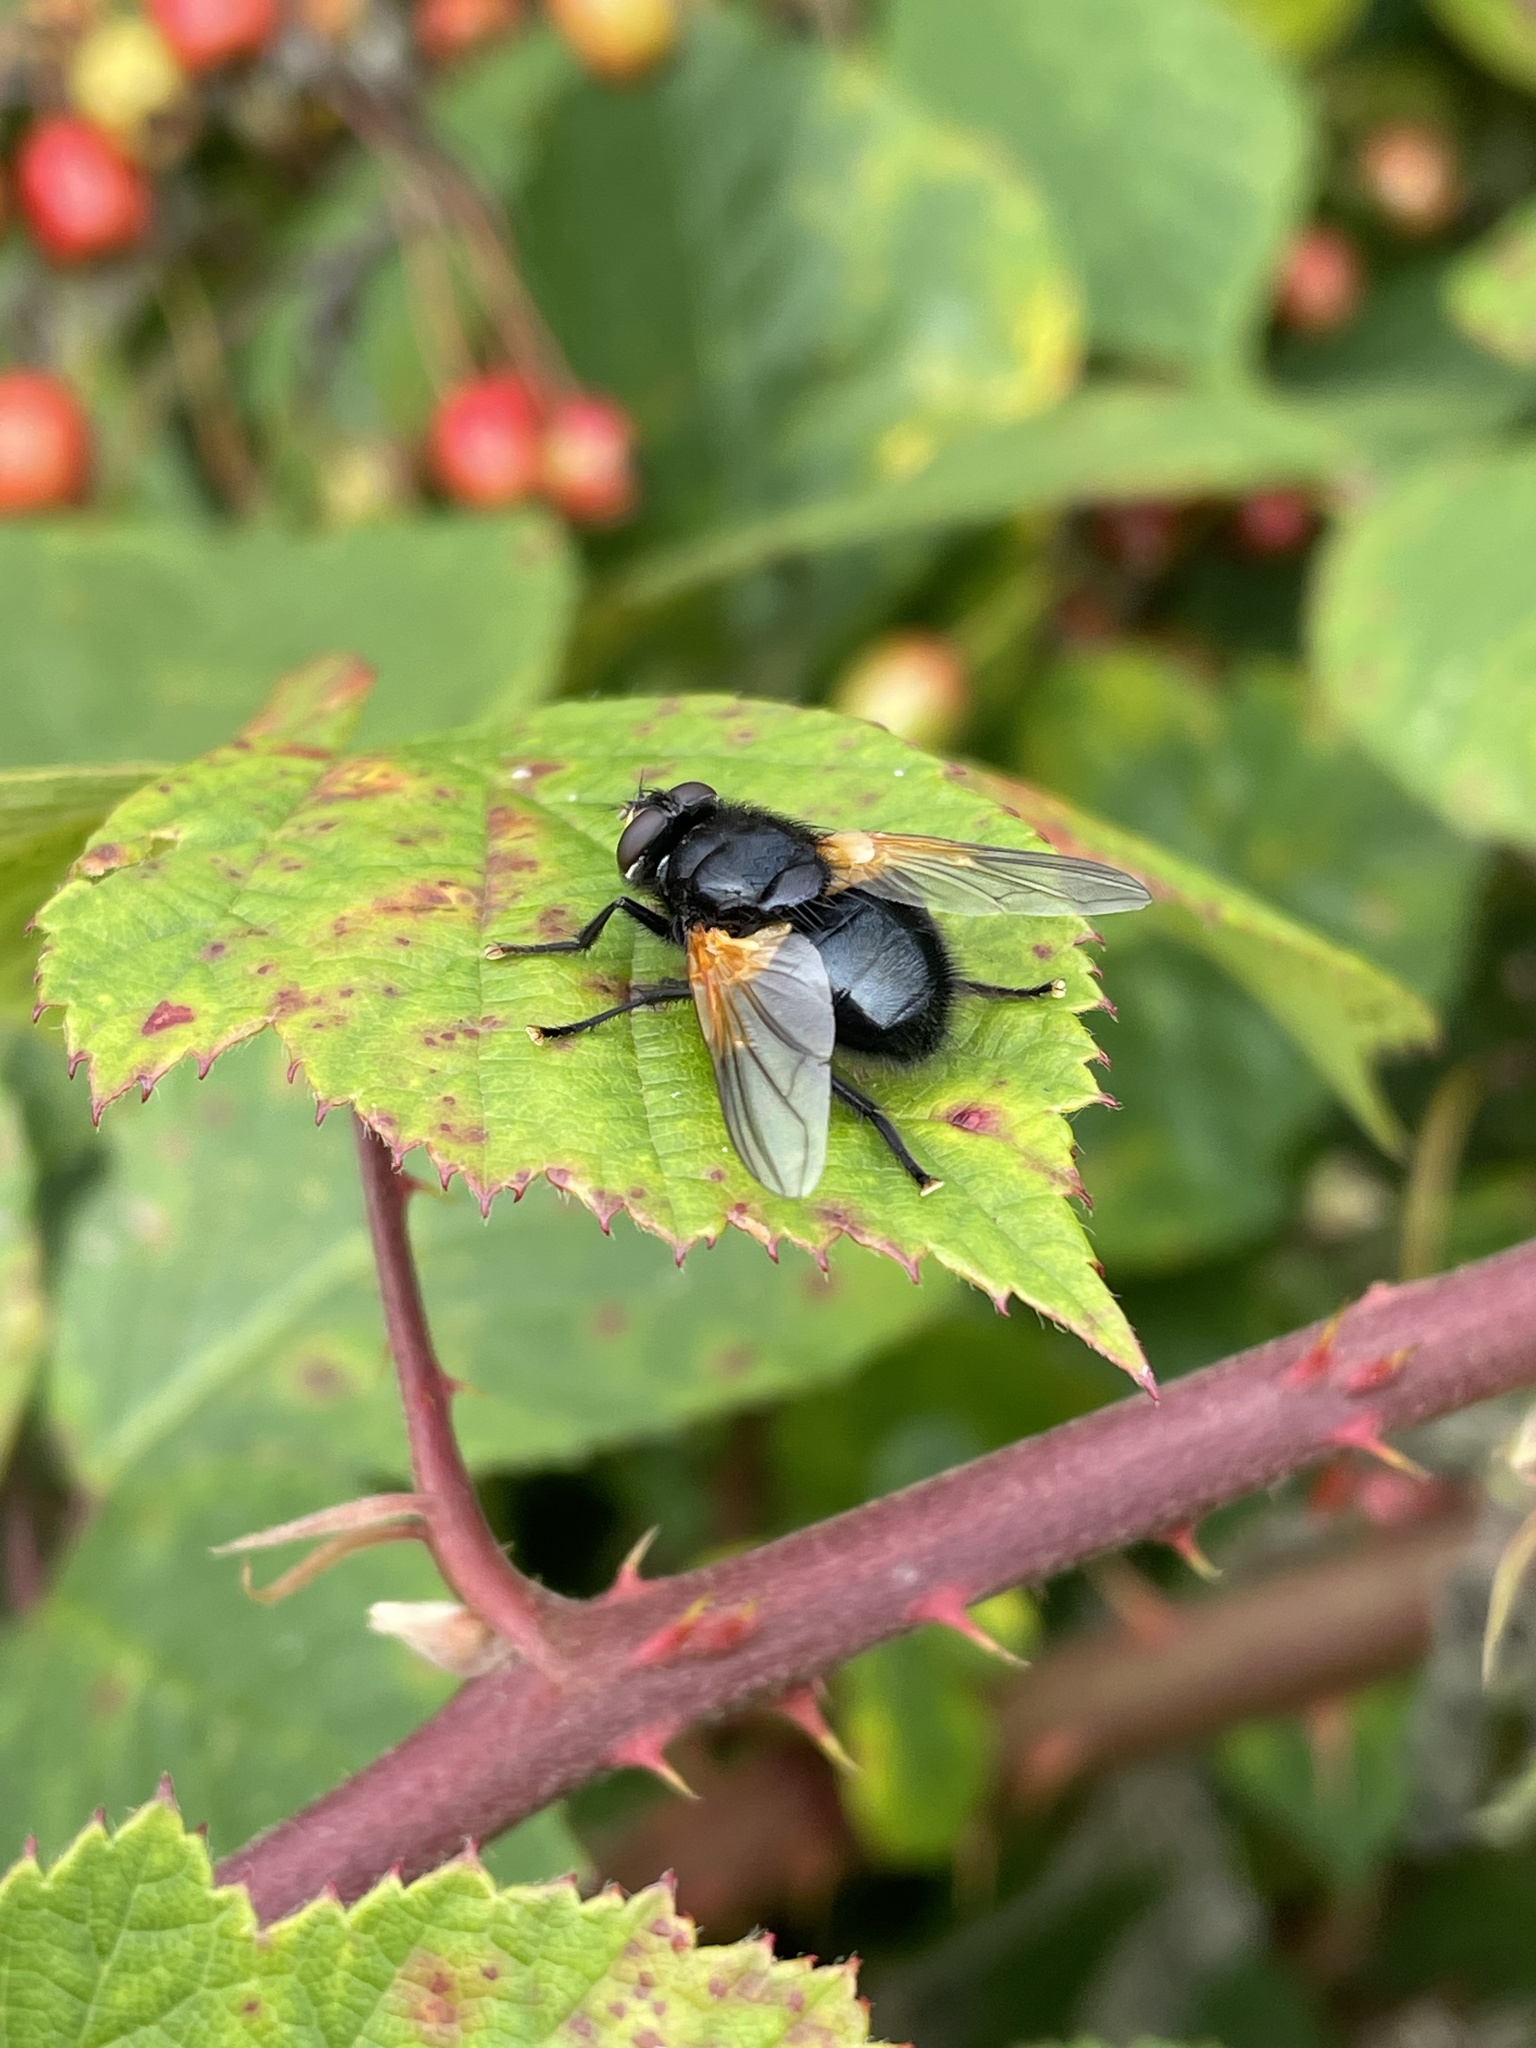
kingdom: Animalia
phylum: Arthropoda
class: Insecta
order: Diptera
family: Muscidae
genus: Mesembrina
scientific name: Mesembrina meridiana
